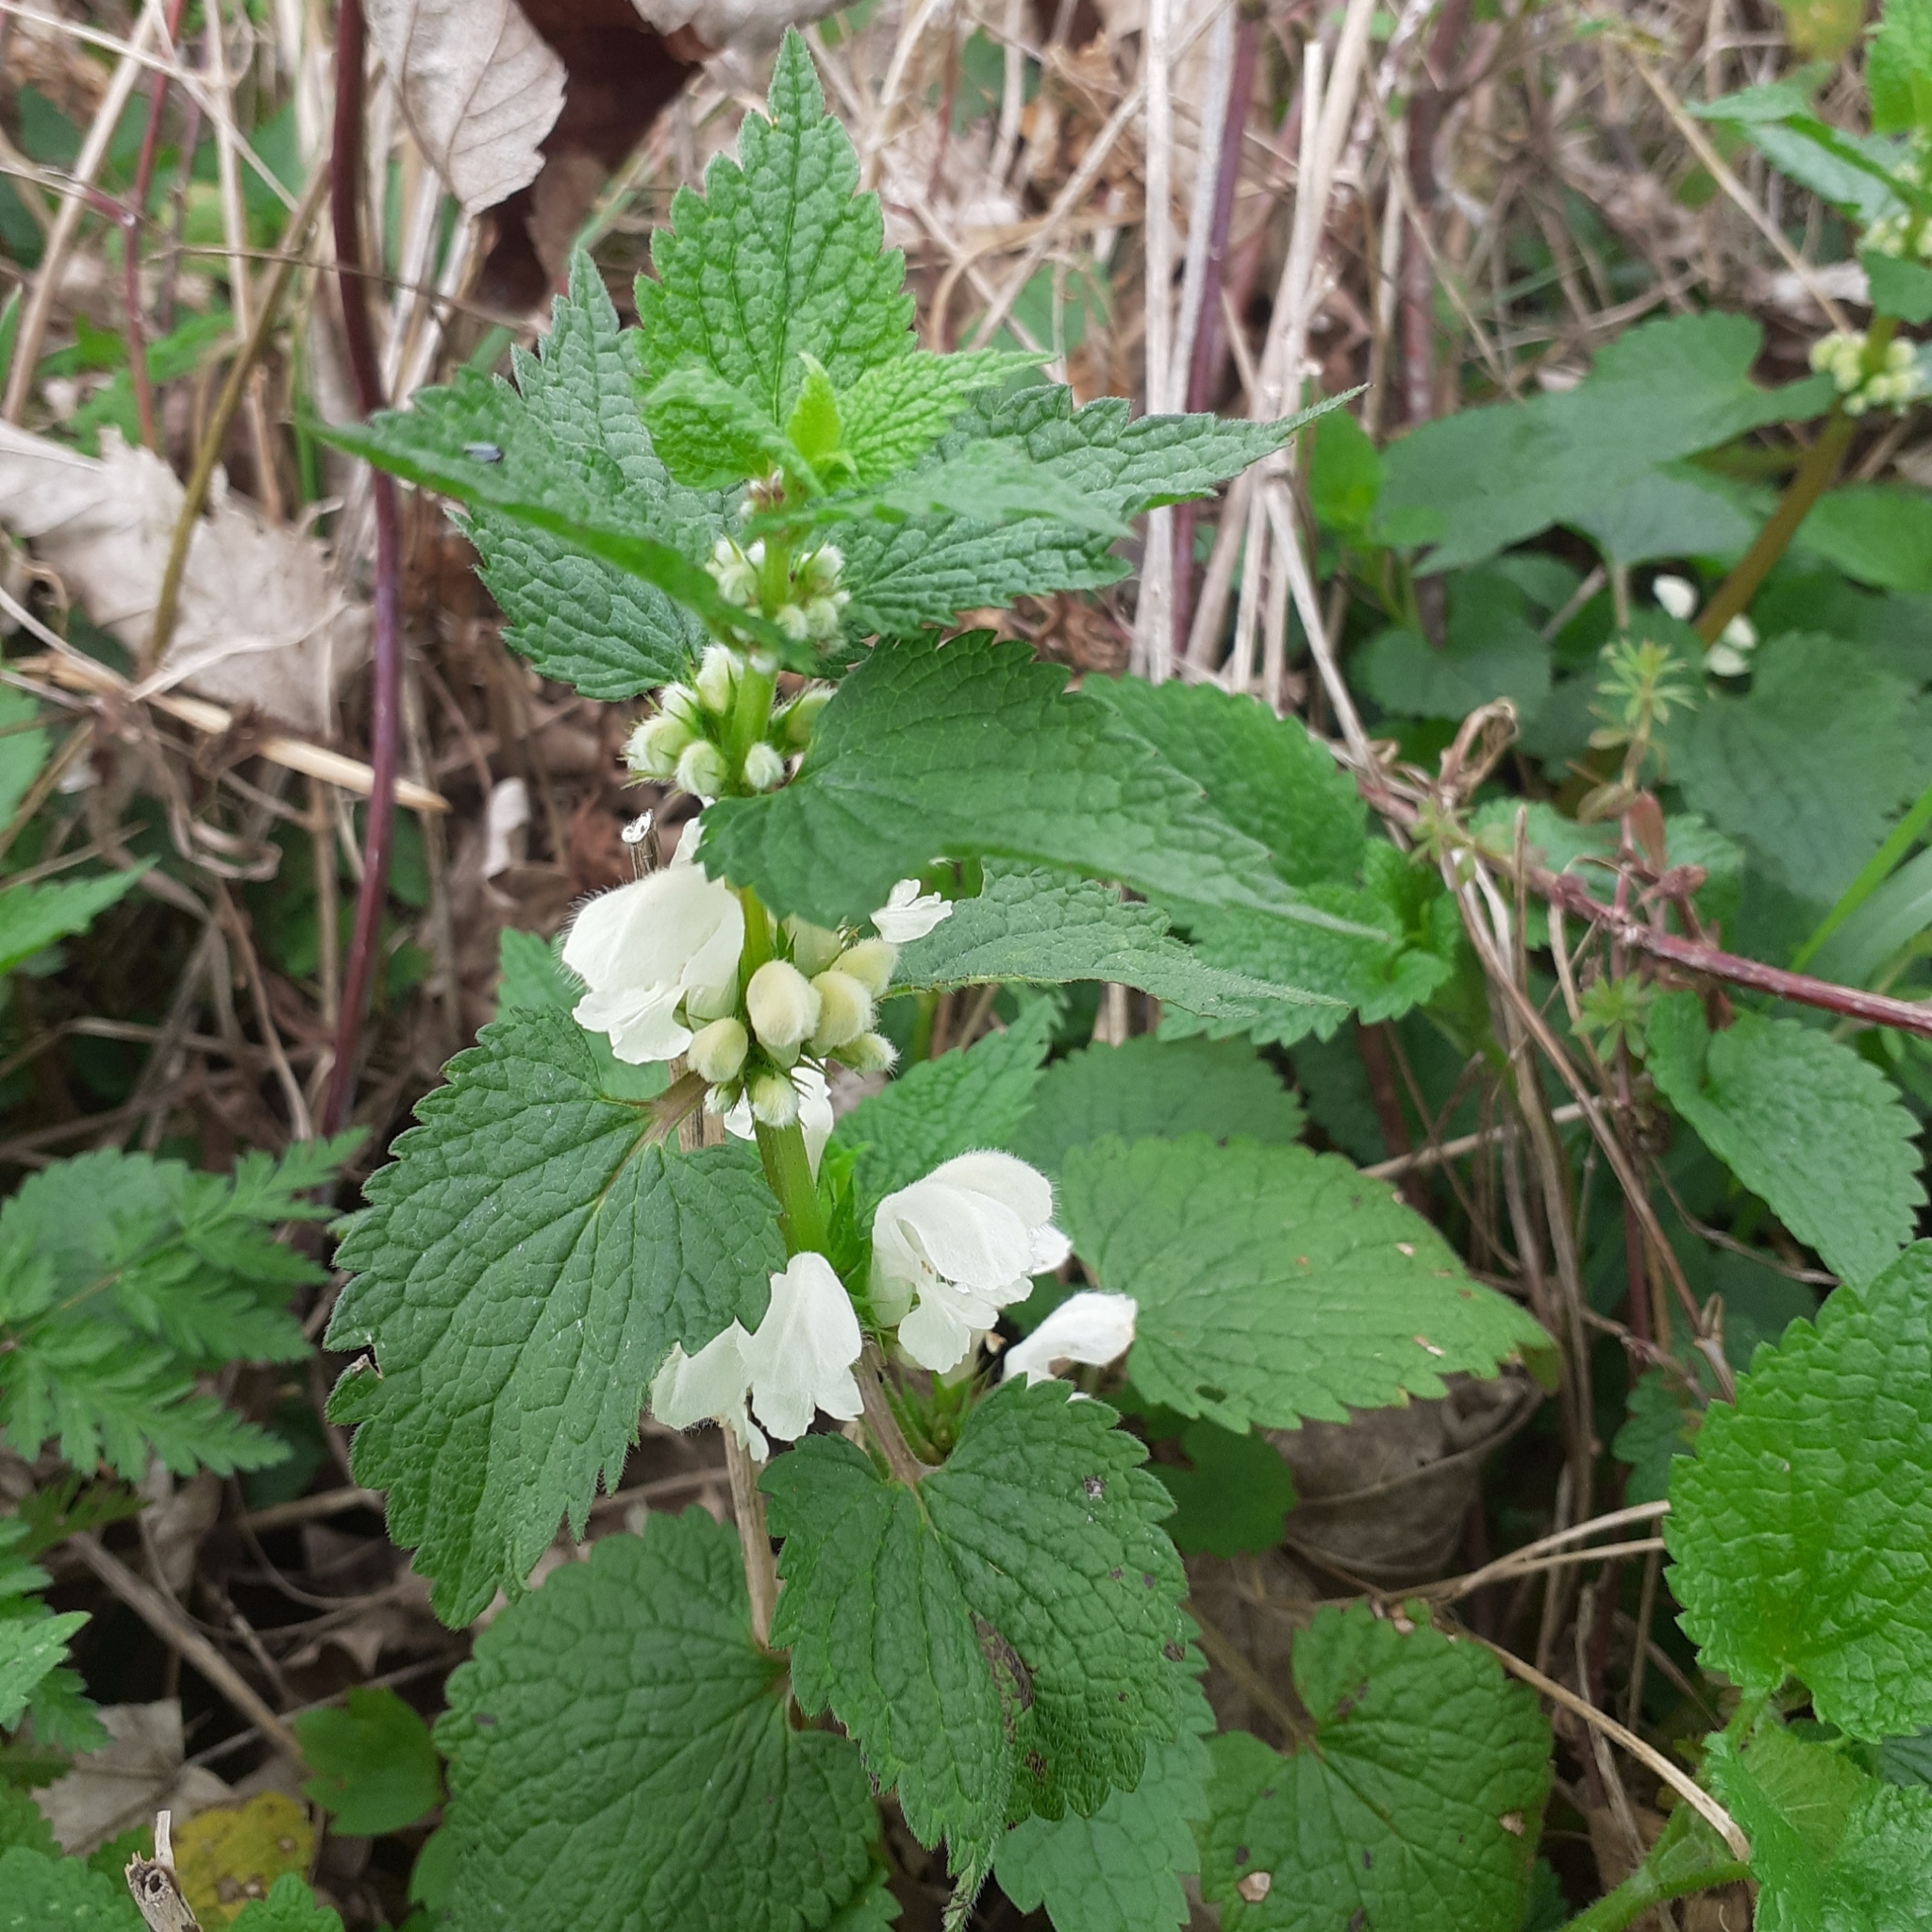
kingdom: Plantae
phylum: Tracheophyta
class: Magnoliopsida
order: Lamiales
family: Lamiaceae
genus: Lamium
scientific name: Lamium album
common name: White dead-nettle
